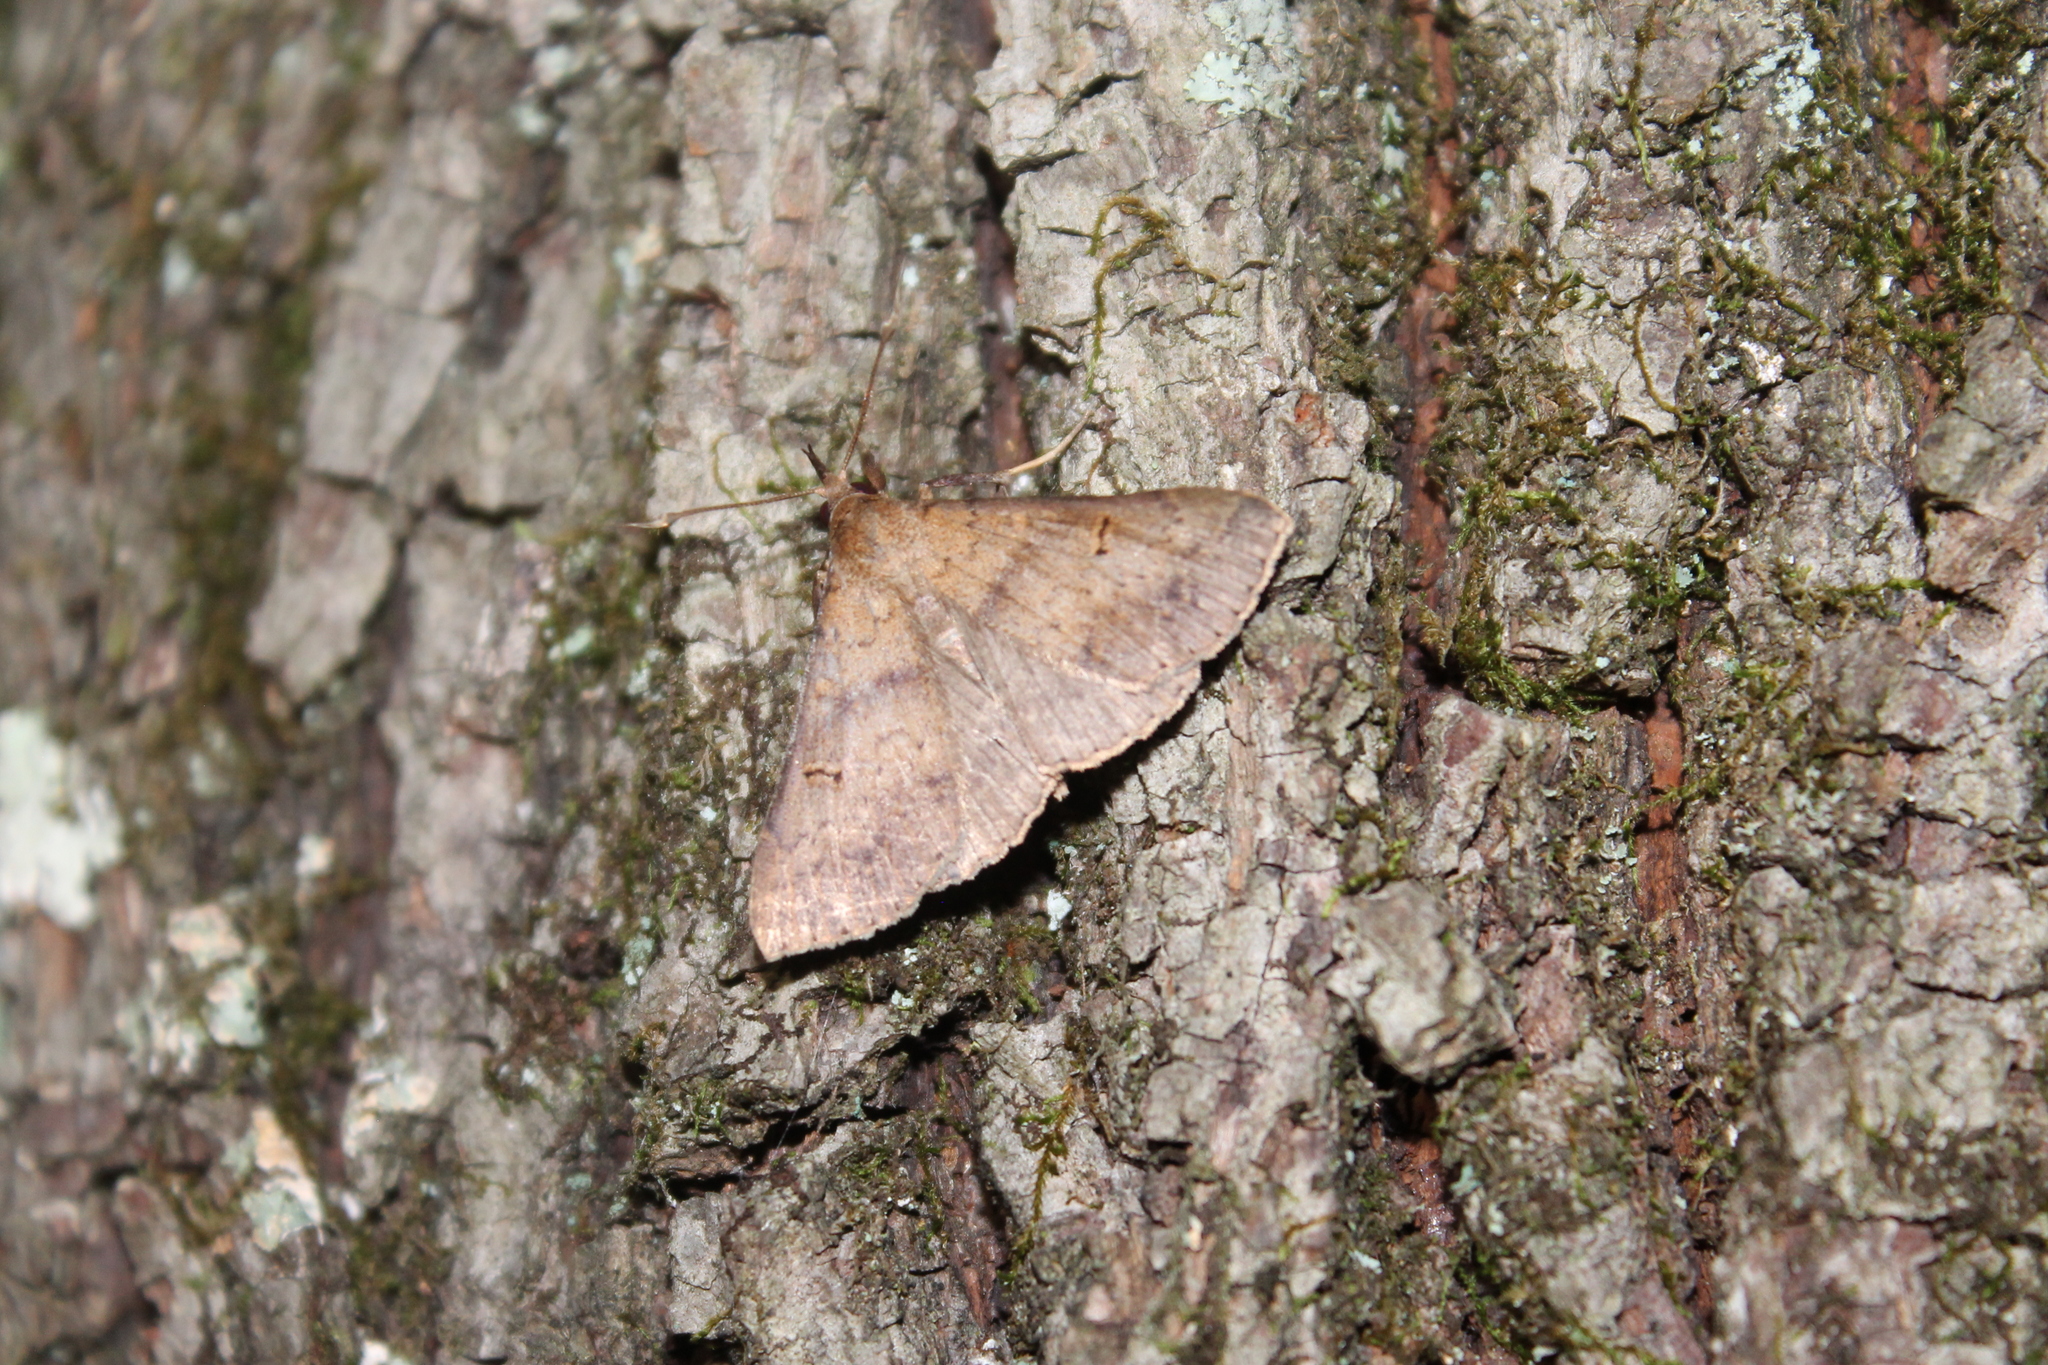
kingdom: Animalia
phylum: Arthropoda
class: Insecta
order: Lepidoptera
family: Erebidae
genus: Renia
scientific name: Renia discoloralis
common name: Discolored renia moth
